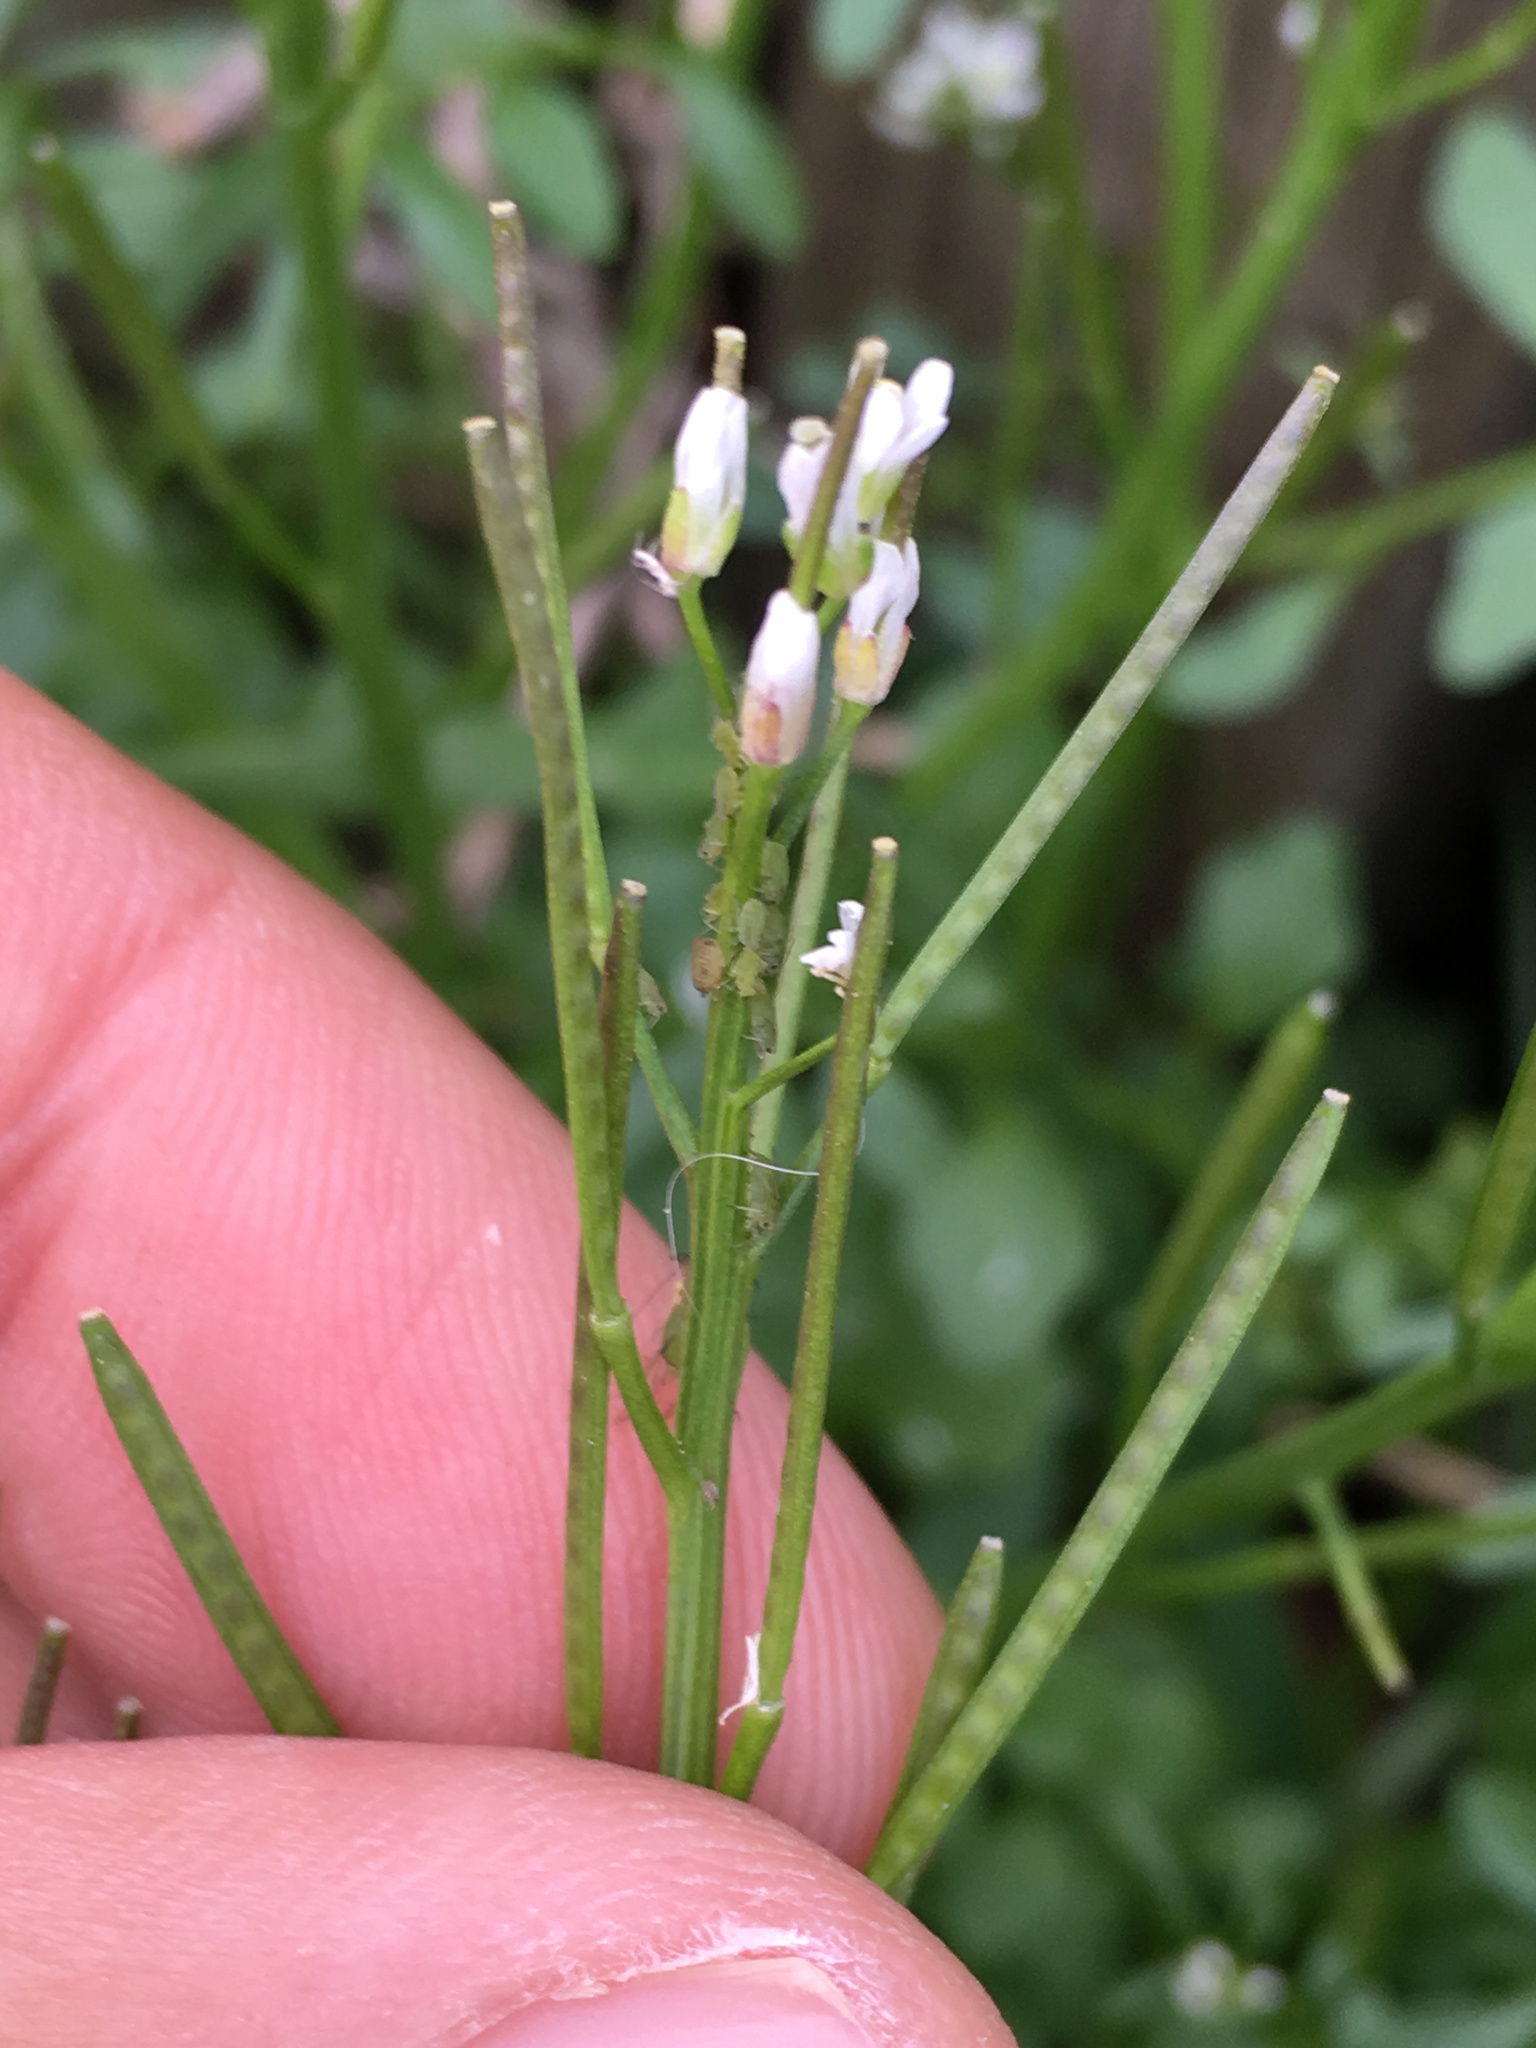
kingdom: Plantae
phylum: Tracheophyta
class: Magnoliopsida
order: Brassicales
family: Brassicaceae
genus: Cardamine
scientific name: Cardamine hirsuta
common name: Hairy bittercress
